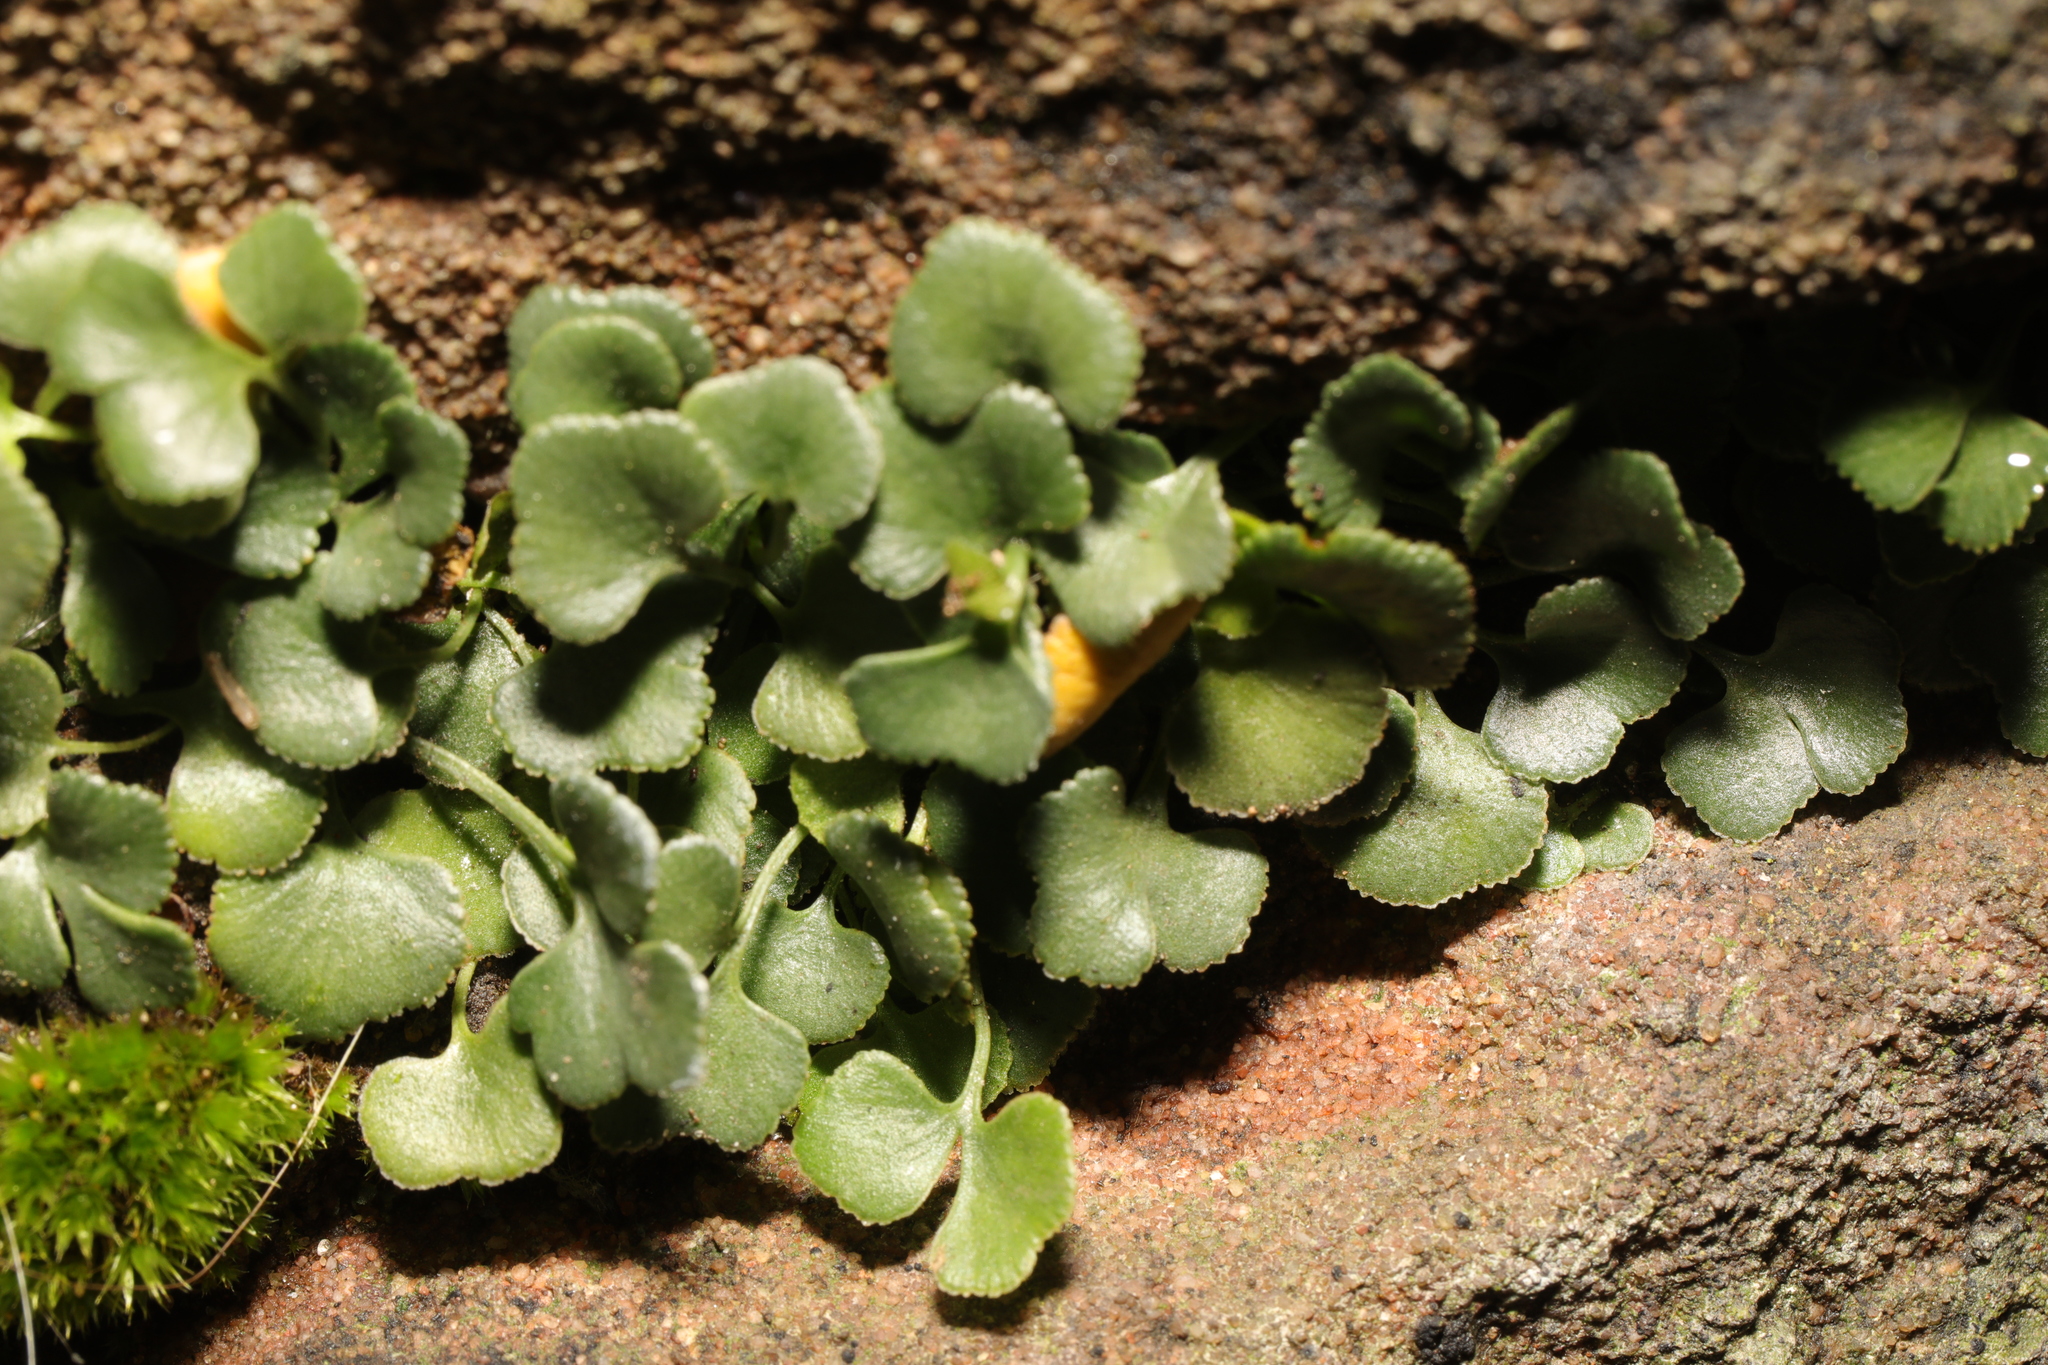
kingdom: Plantae
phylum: Tracheophyta
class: Polypodiopsida
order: Polypodiales
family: Aspleniaceae
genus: Asplenium
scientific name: Asplenium ruta-muraria
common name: Wall-rue
